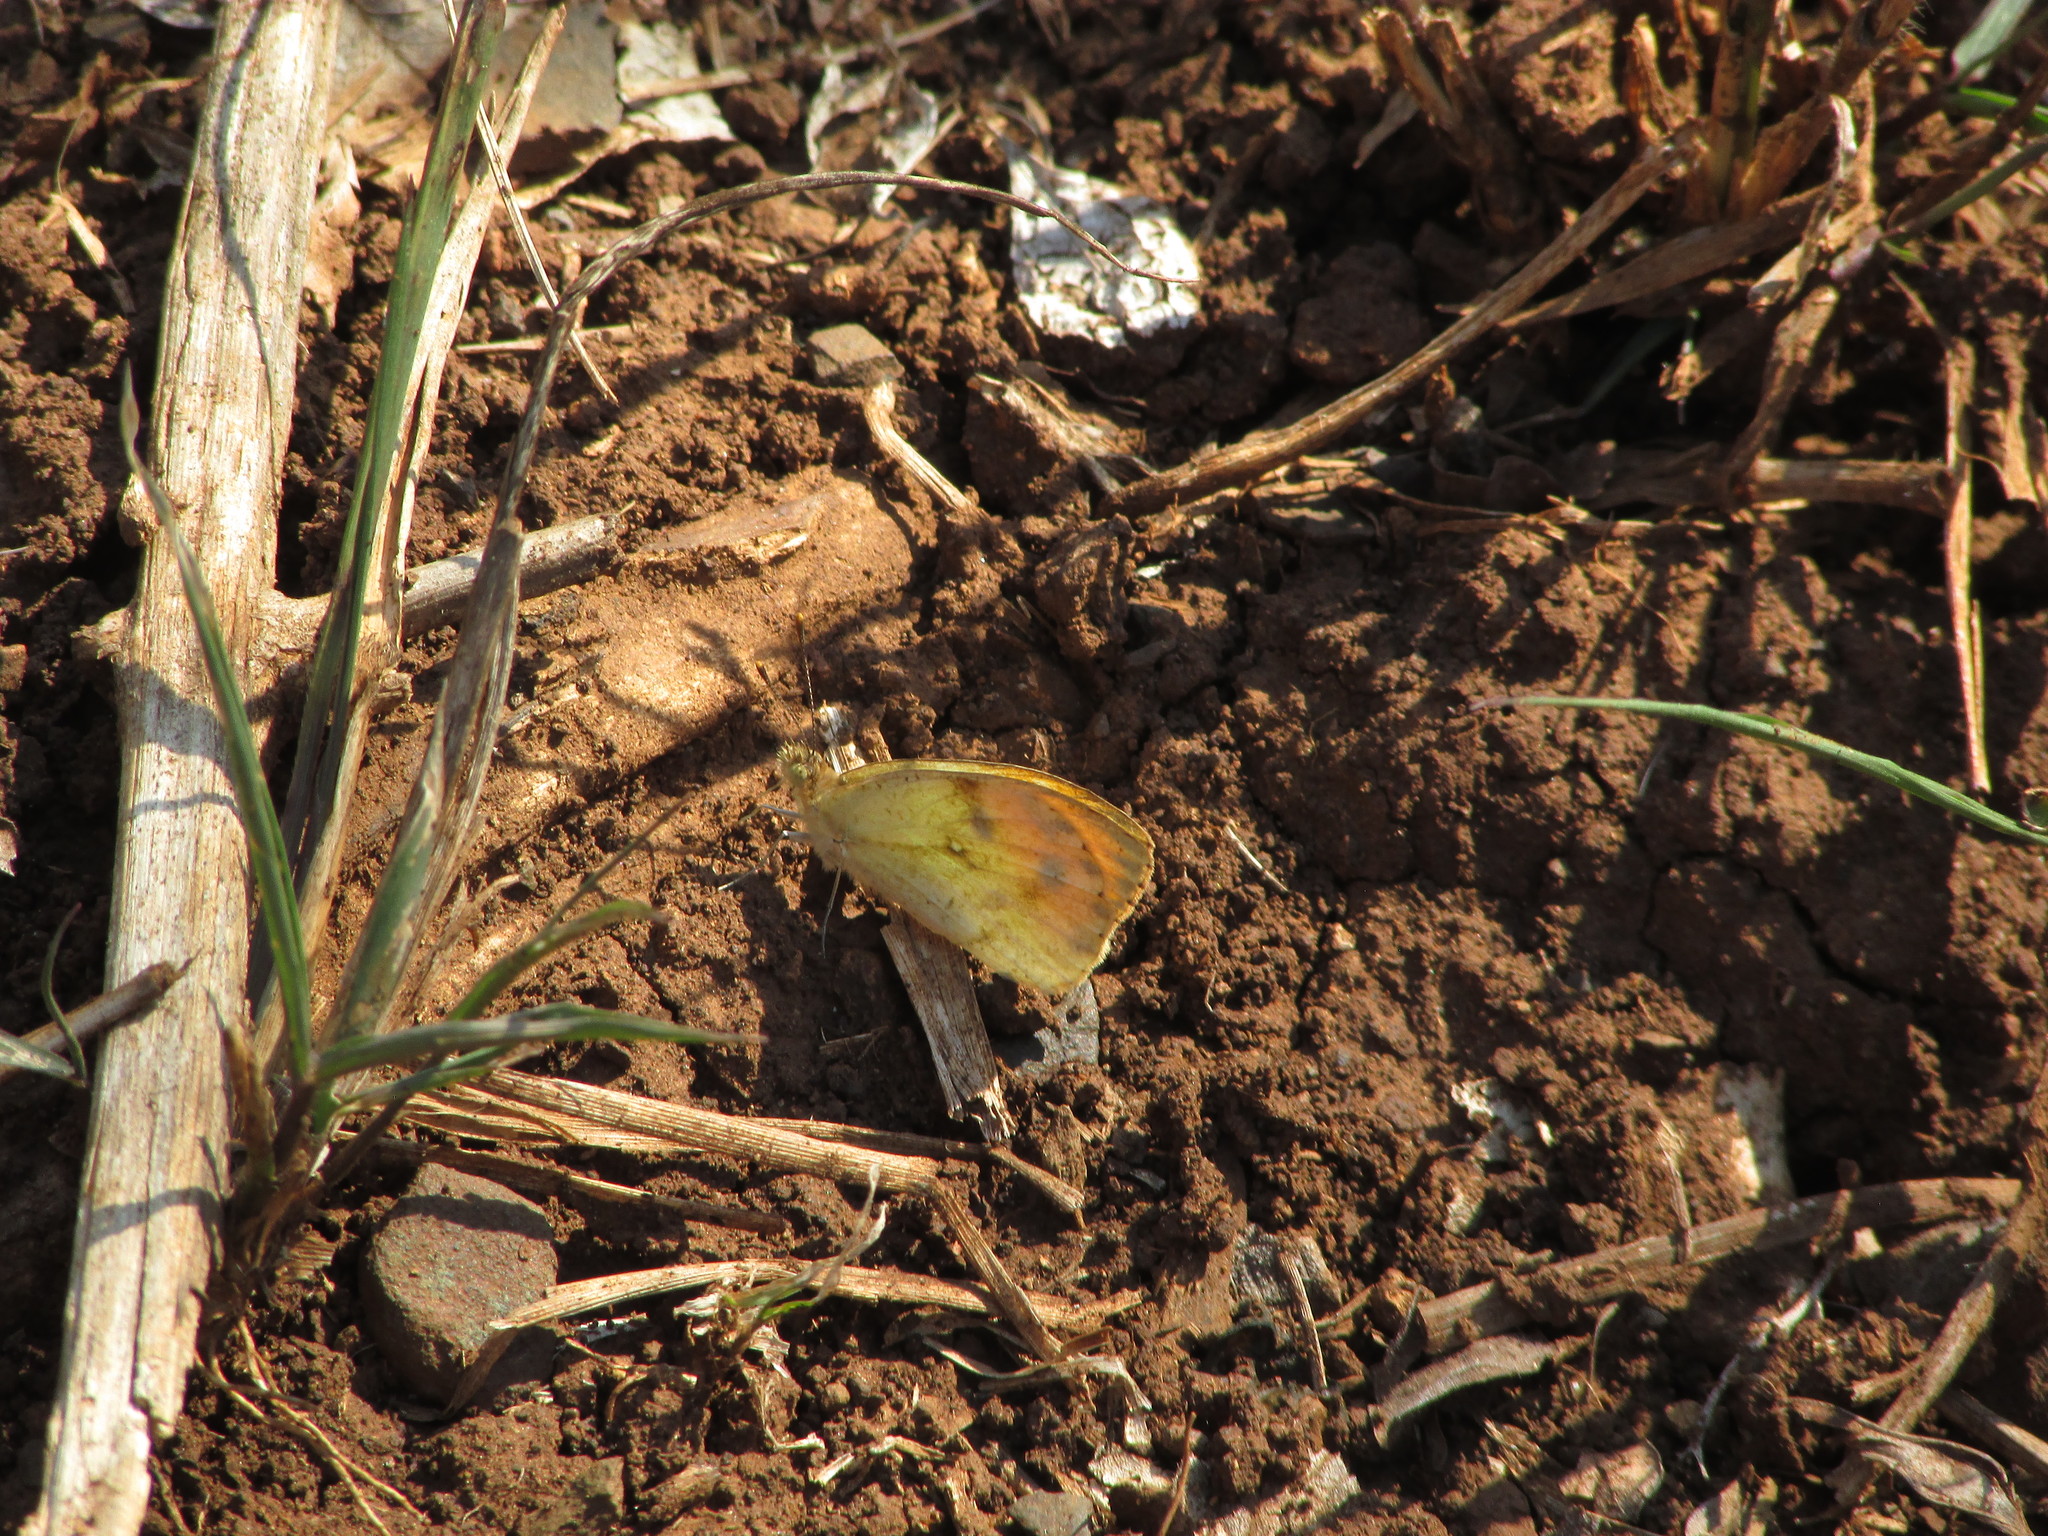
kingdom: Animalia
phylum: Arthropoda
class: Insecta
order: Lepidoptera
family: Pieridae
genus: Colotis
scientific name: Colotis auxo
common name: Sulphur orange tip
